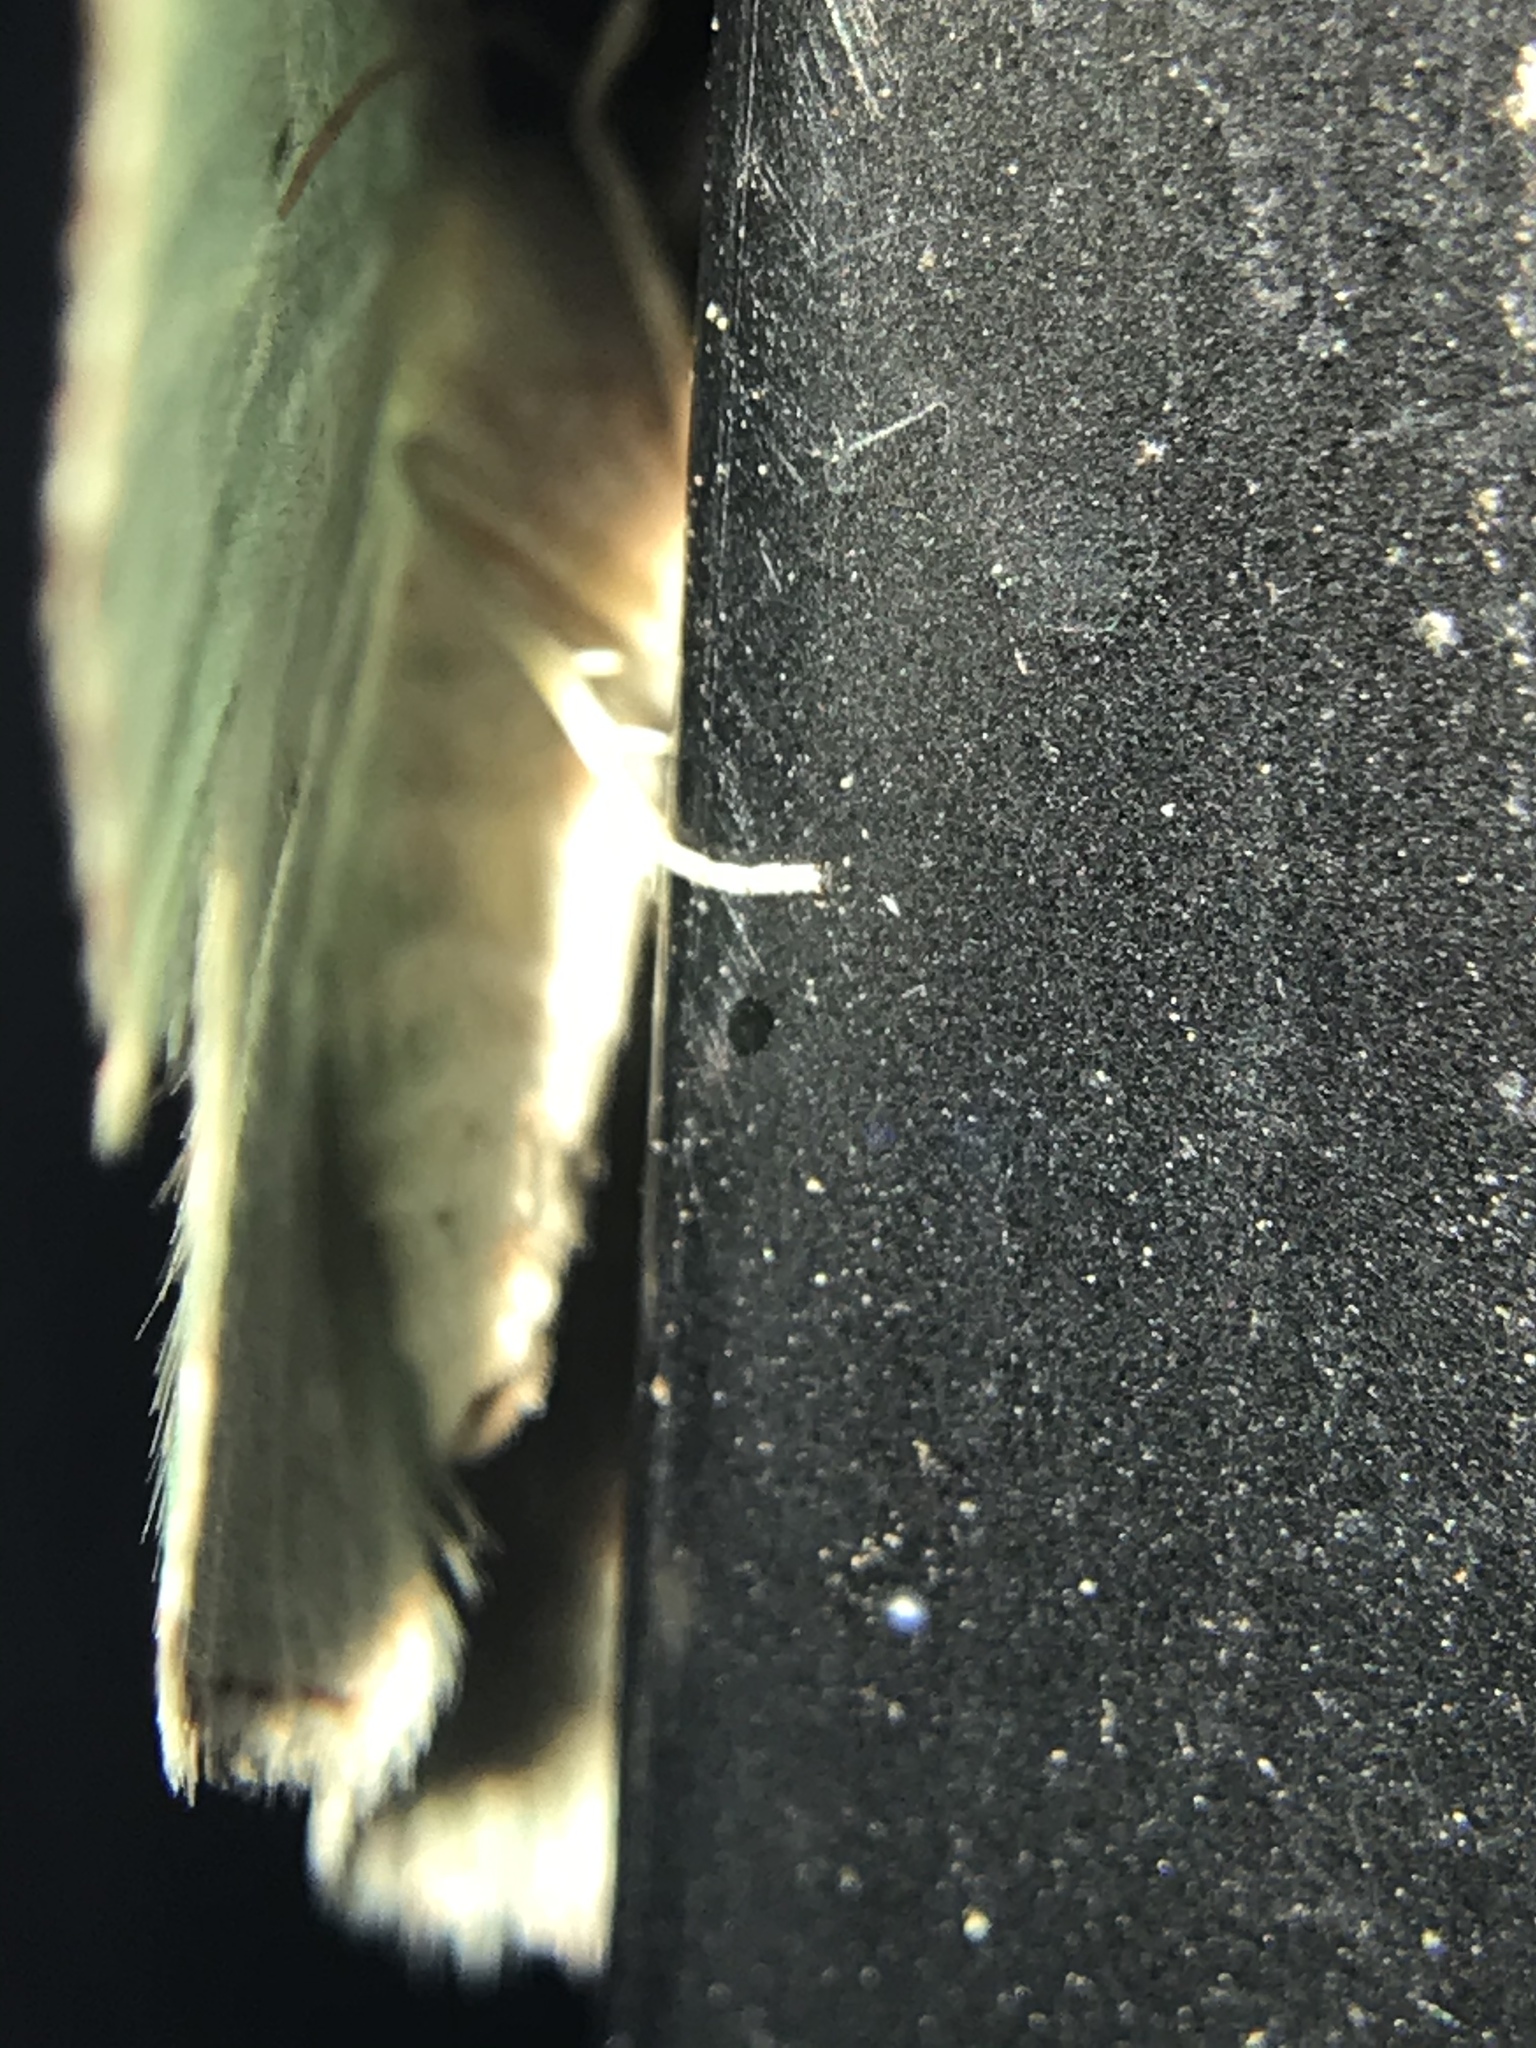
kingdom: Animalia
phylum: Arthropoda
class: Insecta
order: Lepidoptera
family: Geometridae
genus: Nemoria
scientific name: Nemoria lixaria
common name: Red-bordered emerald
